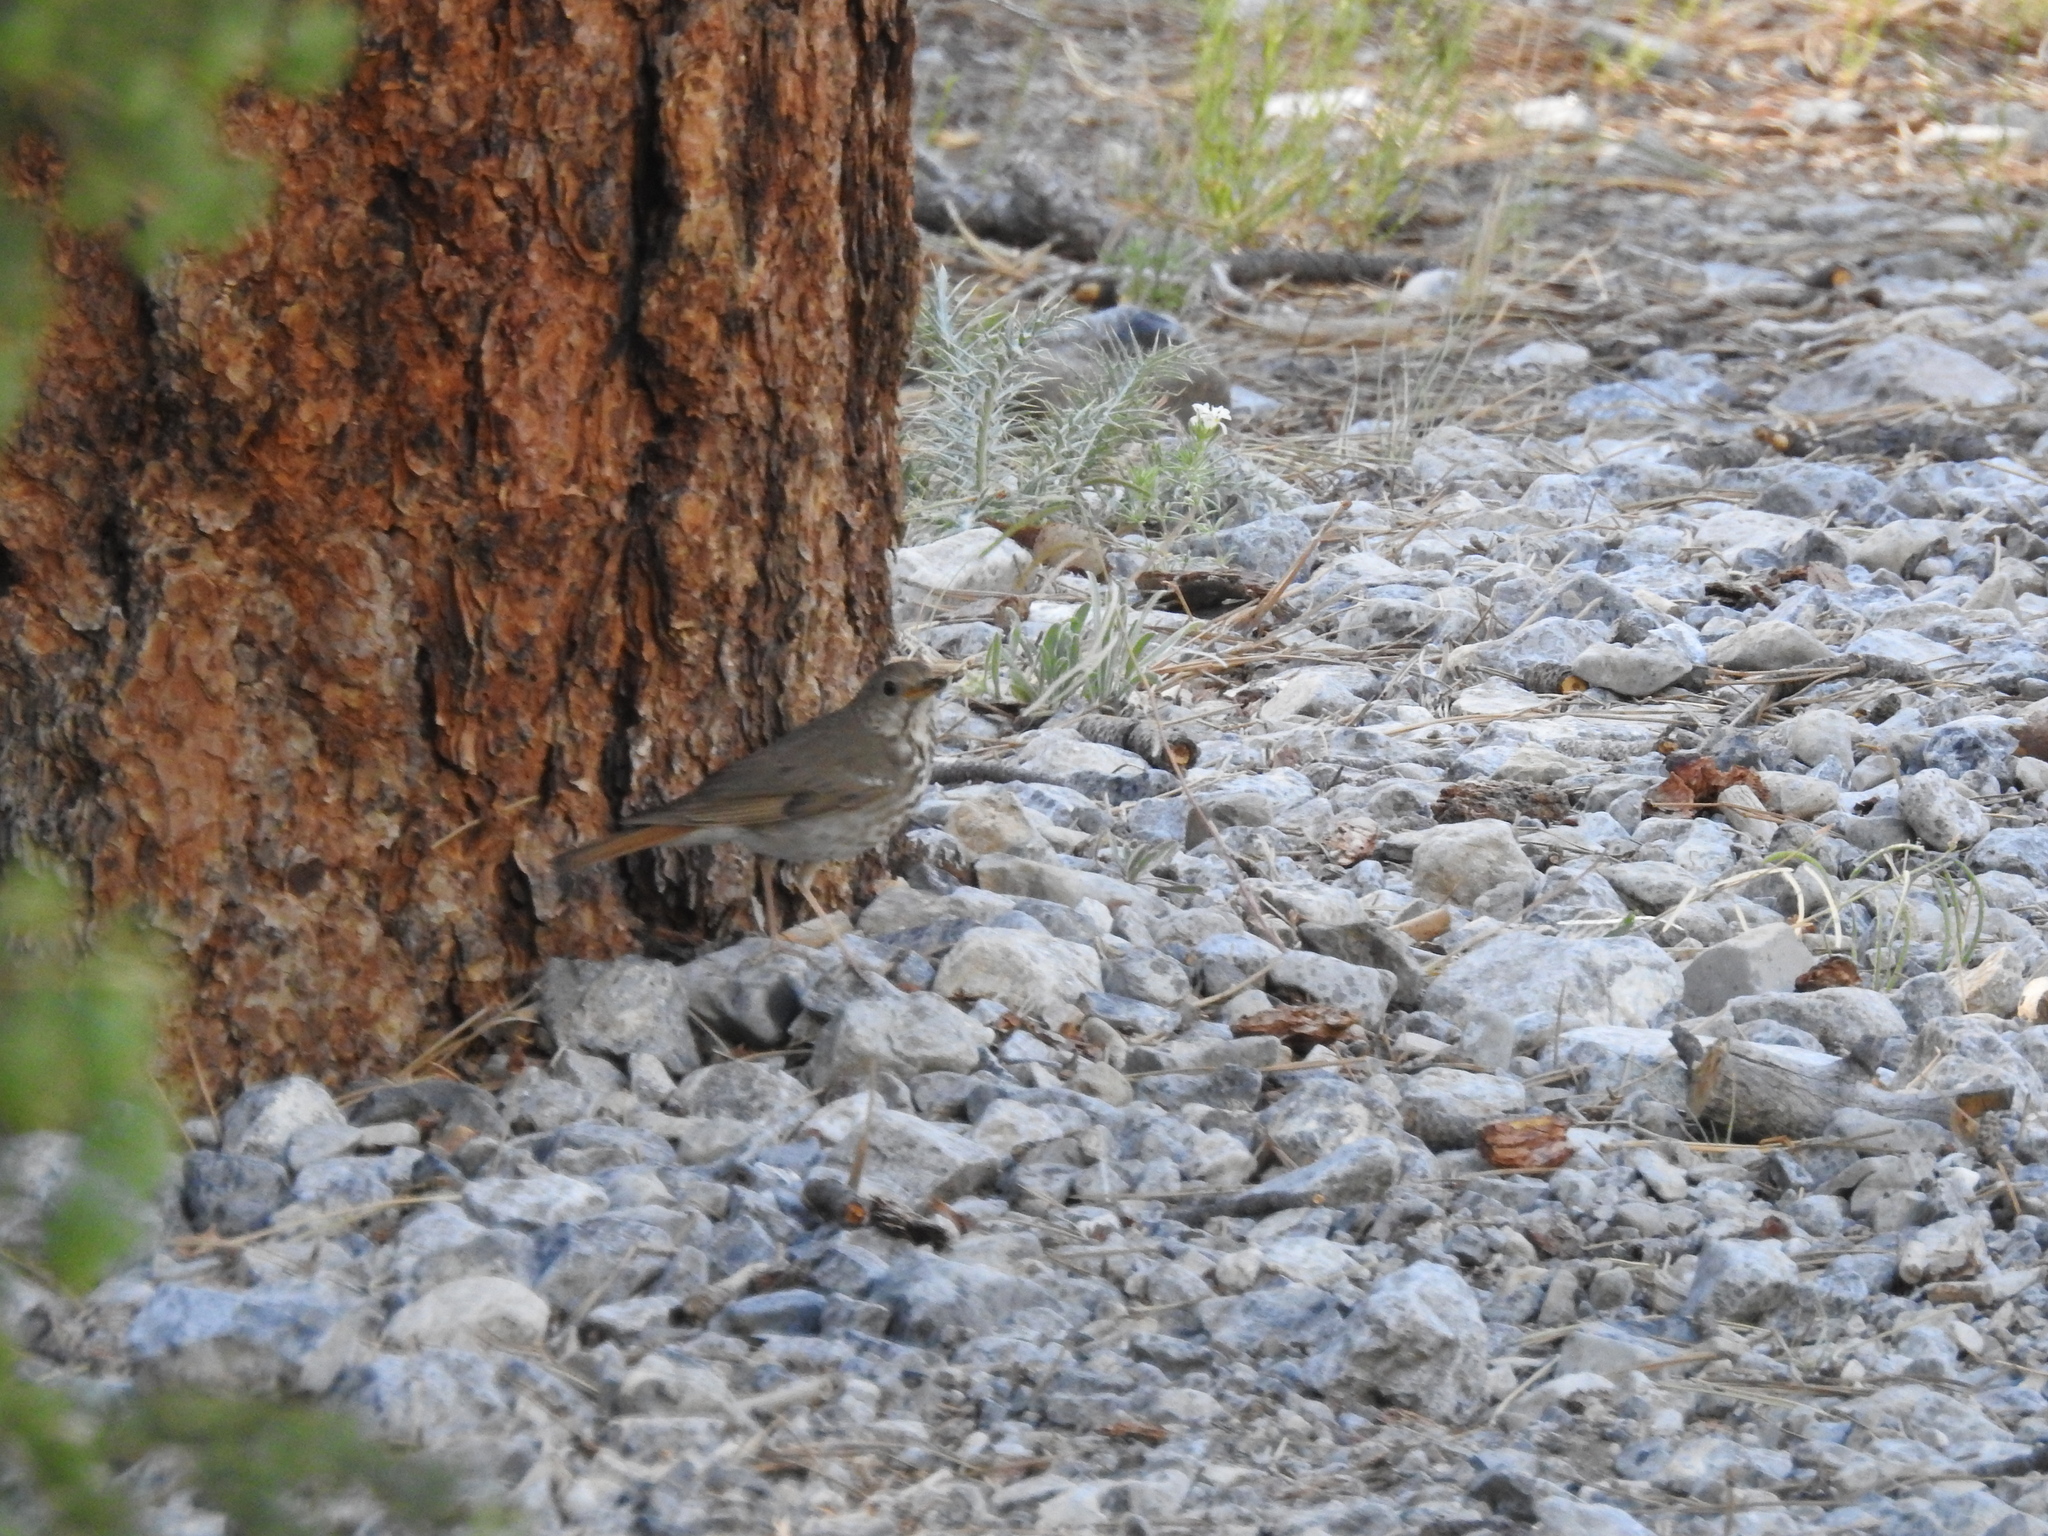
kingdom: Animalia
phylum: Chordata
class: Aves
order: Passeriformes
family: Turdidae
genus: Catharus
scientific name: Catharus guttatus
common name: Hermit thrush
